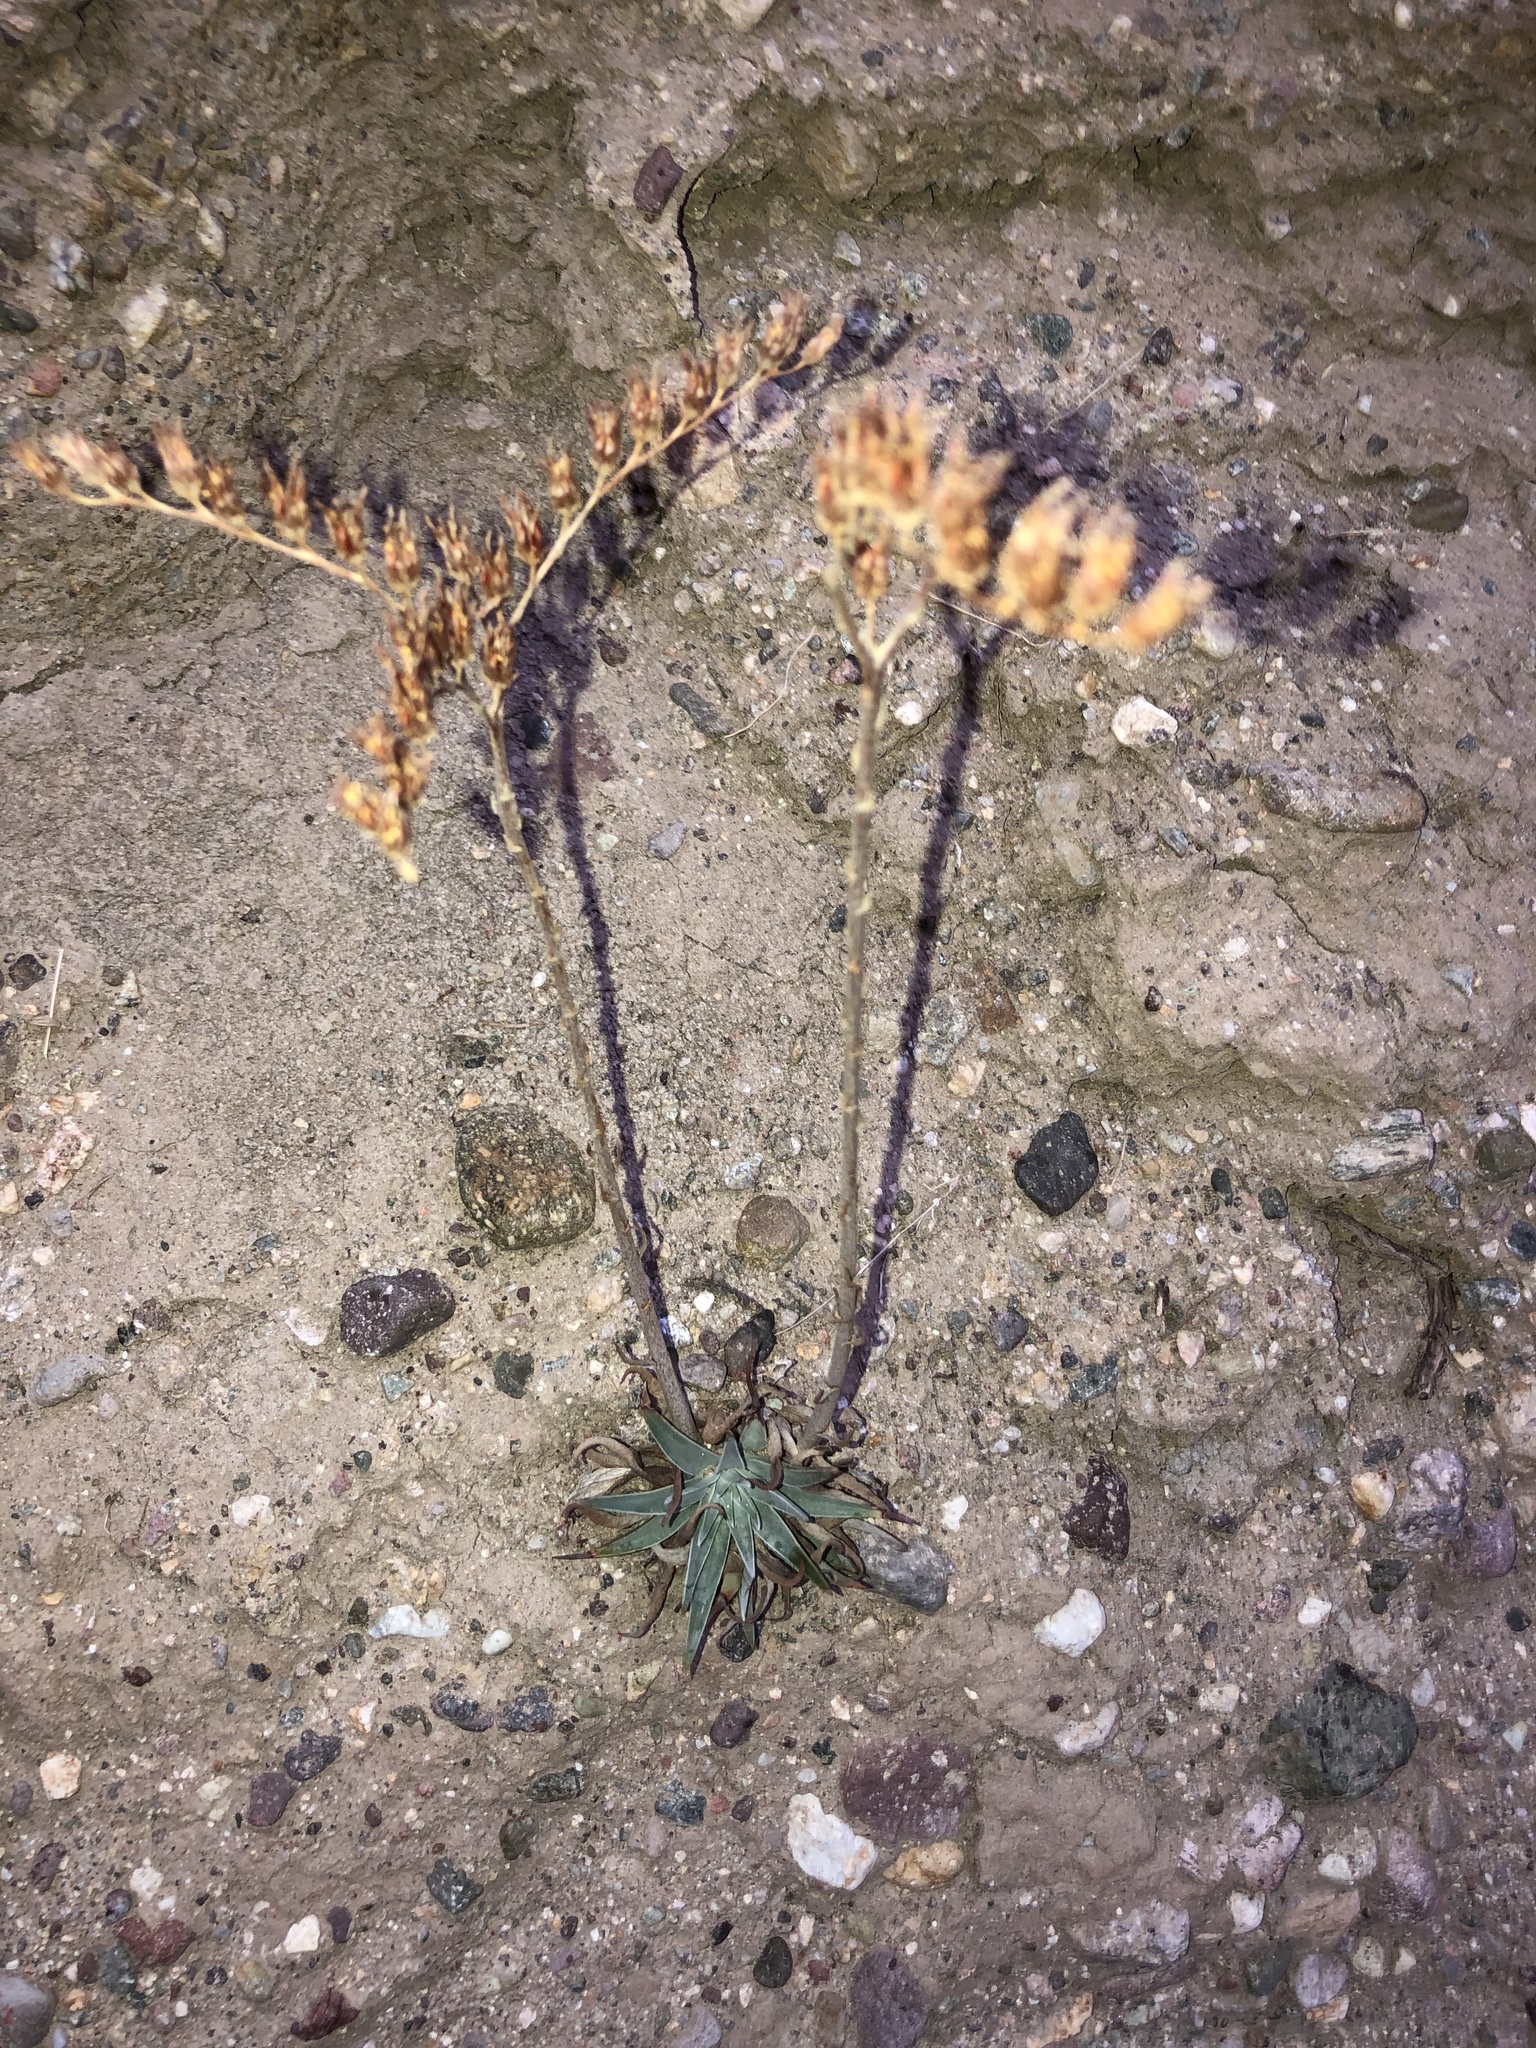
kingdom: Plantae
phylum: Tracheophyta
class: Magnoliopsida
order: Saxifragales
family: Crassulaceae
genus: Dudleya
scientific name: Dudleya lanceolata
